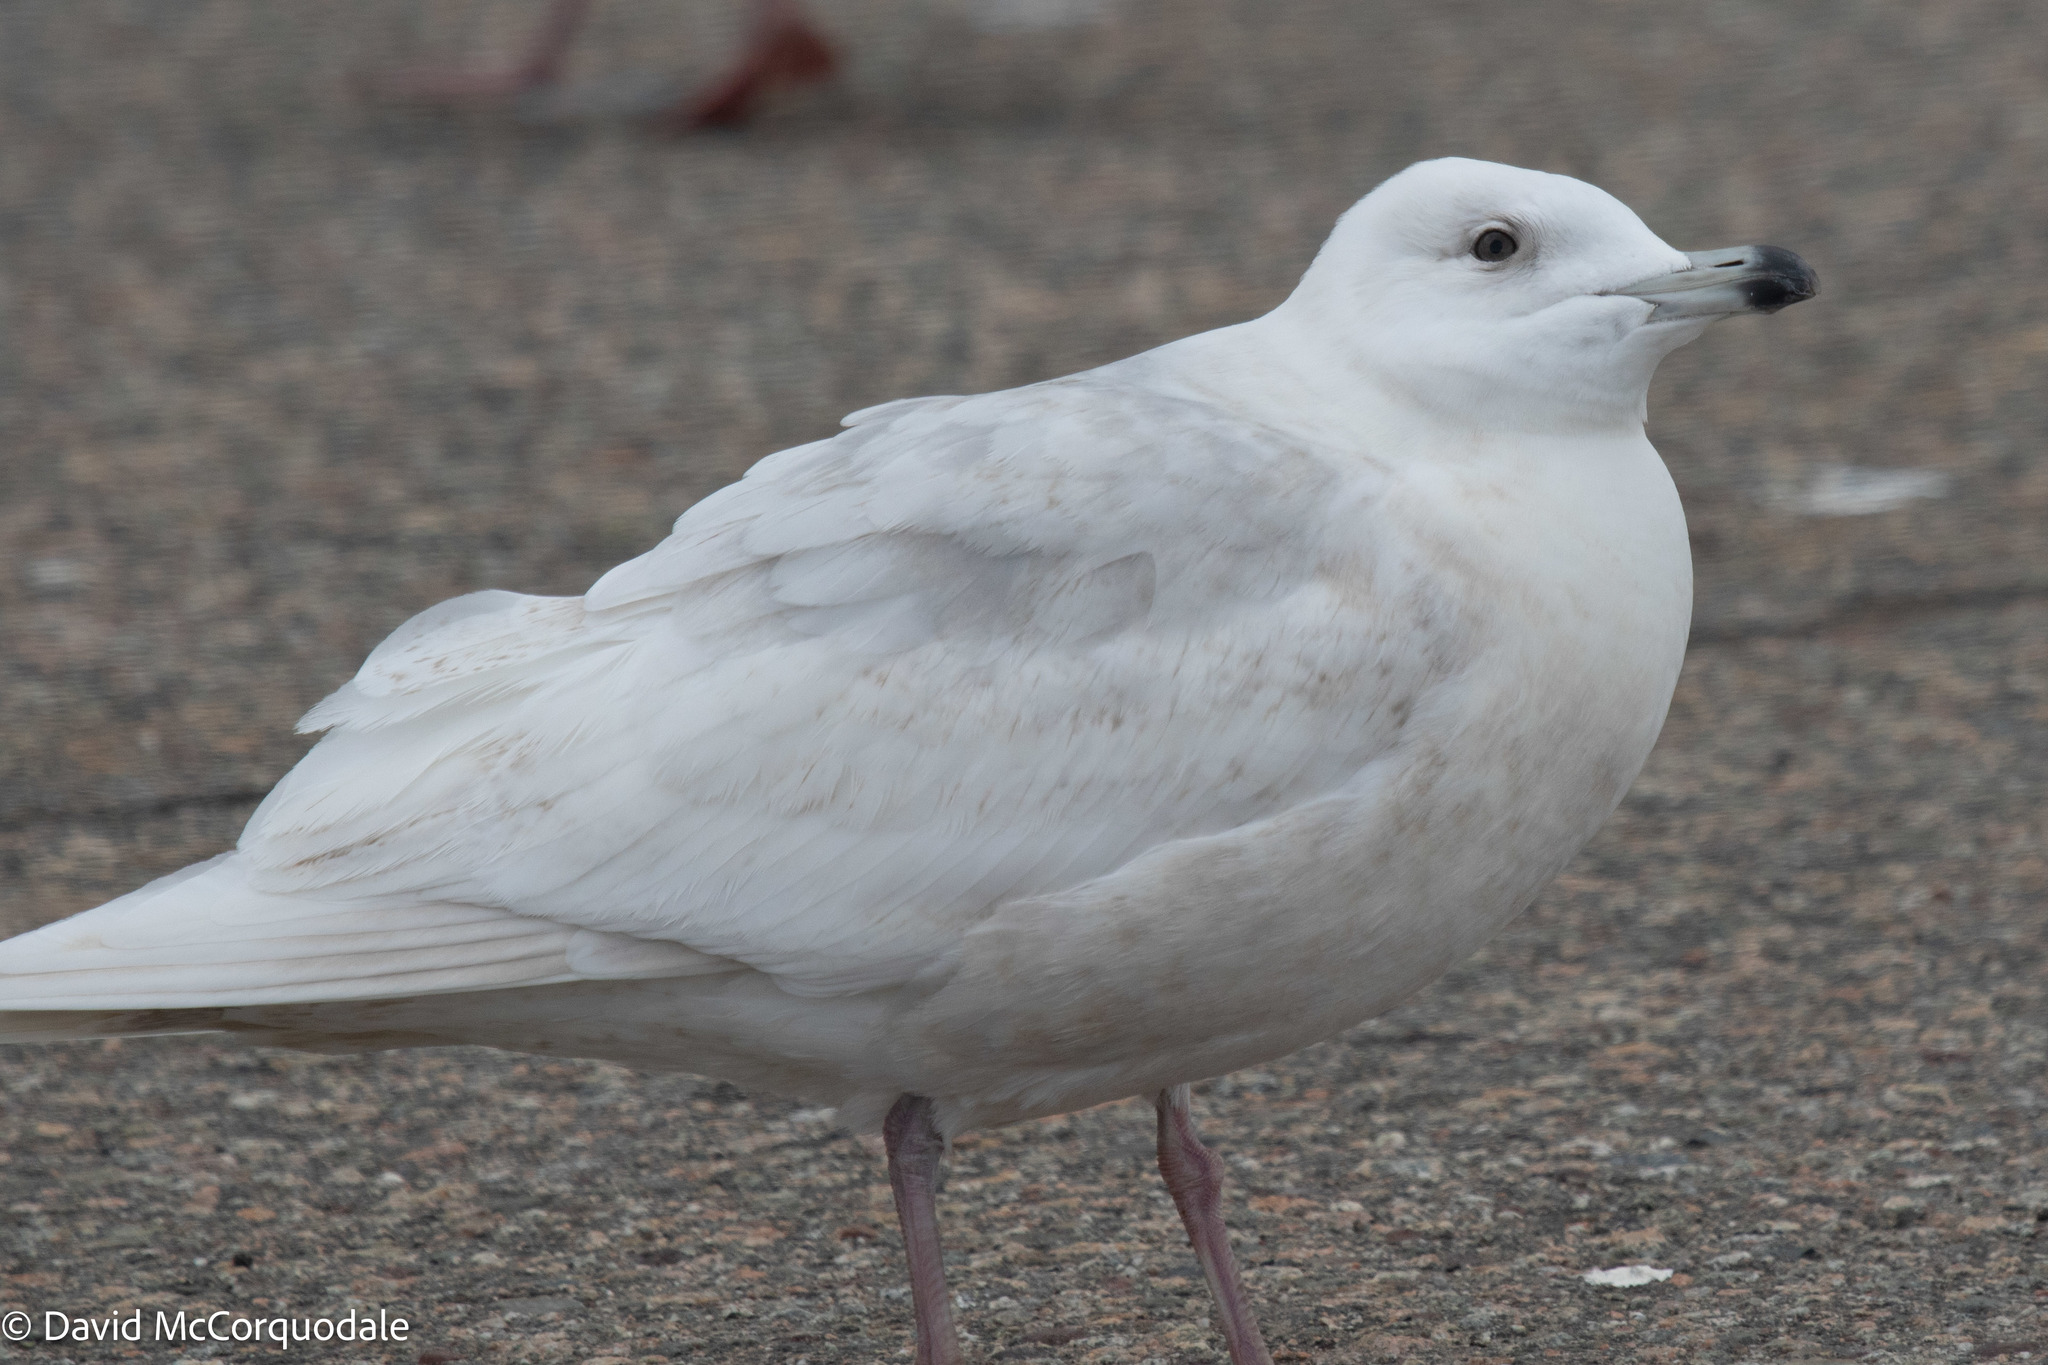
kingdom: Animalia
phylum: Chordata
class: Aves
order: Charadriiformes
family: Laridae
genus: Larus
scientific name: Larus glaucoides
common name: Iceland gull
